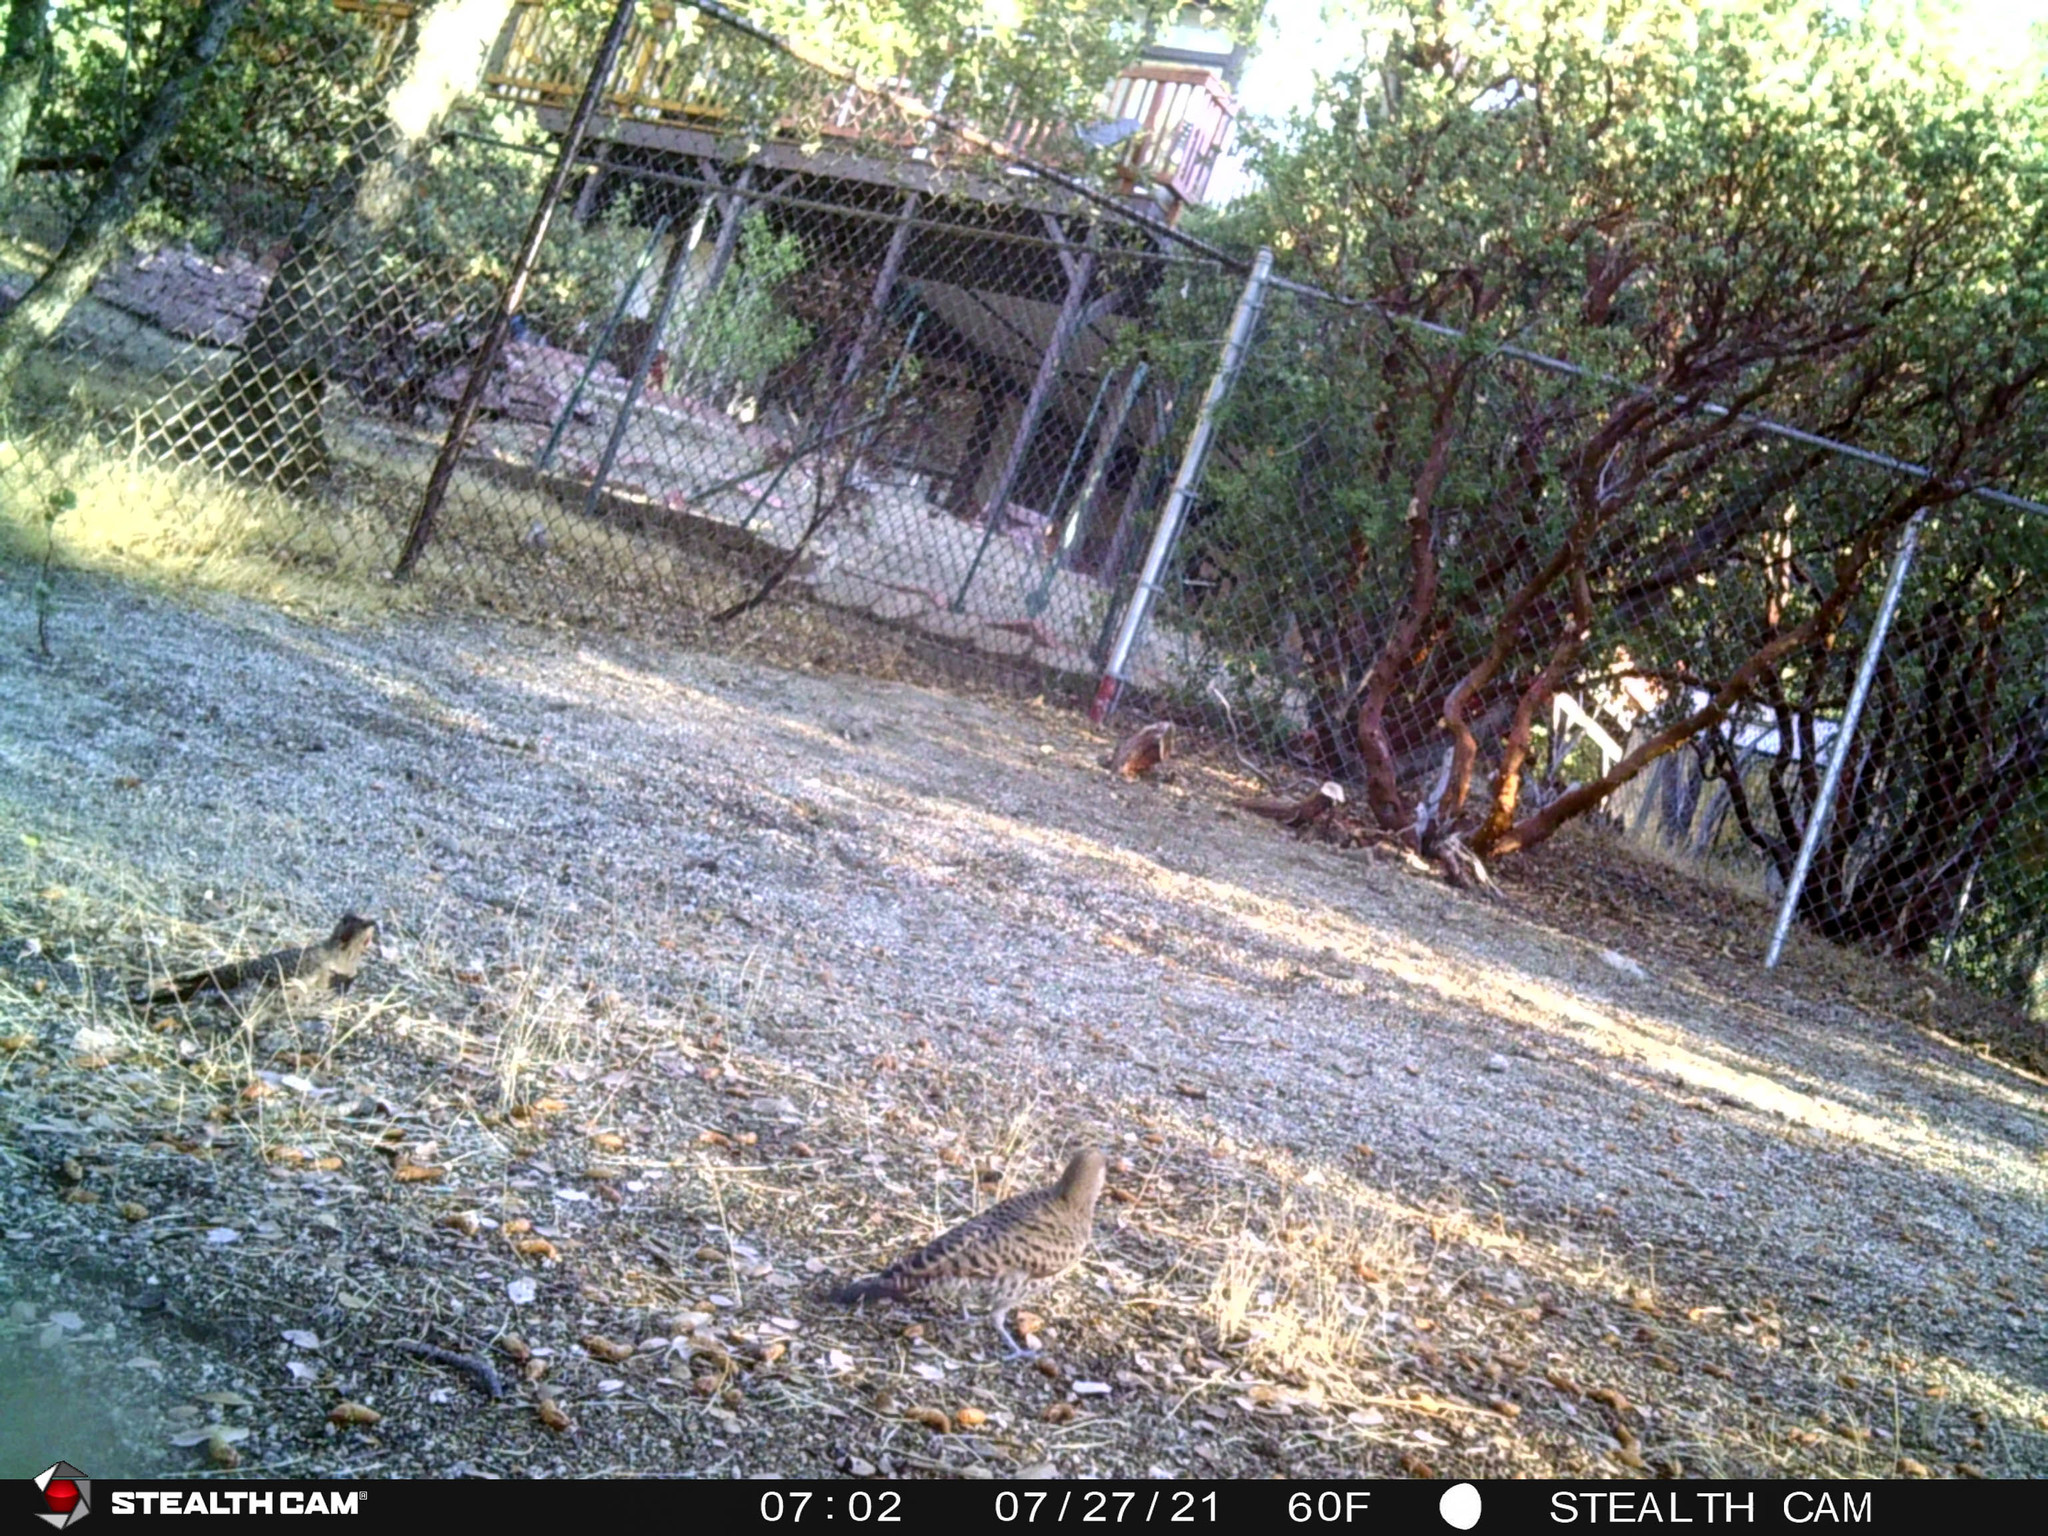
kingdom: Animalia
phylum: Chordata
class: Aves
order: Piciformes
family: Picidae
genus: Colaptes
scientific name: Colaptes auratus
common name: Northern flicker
